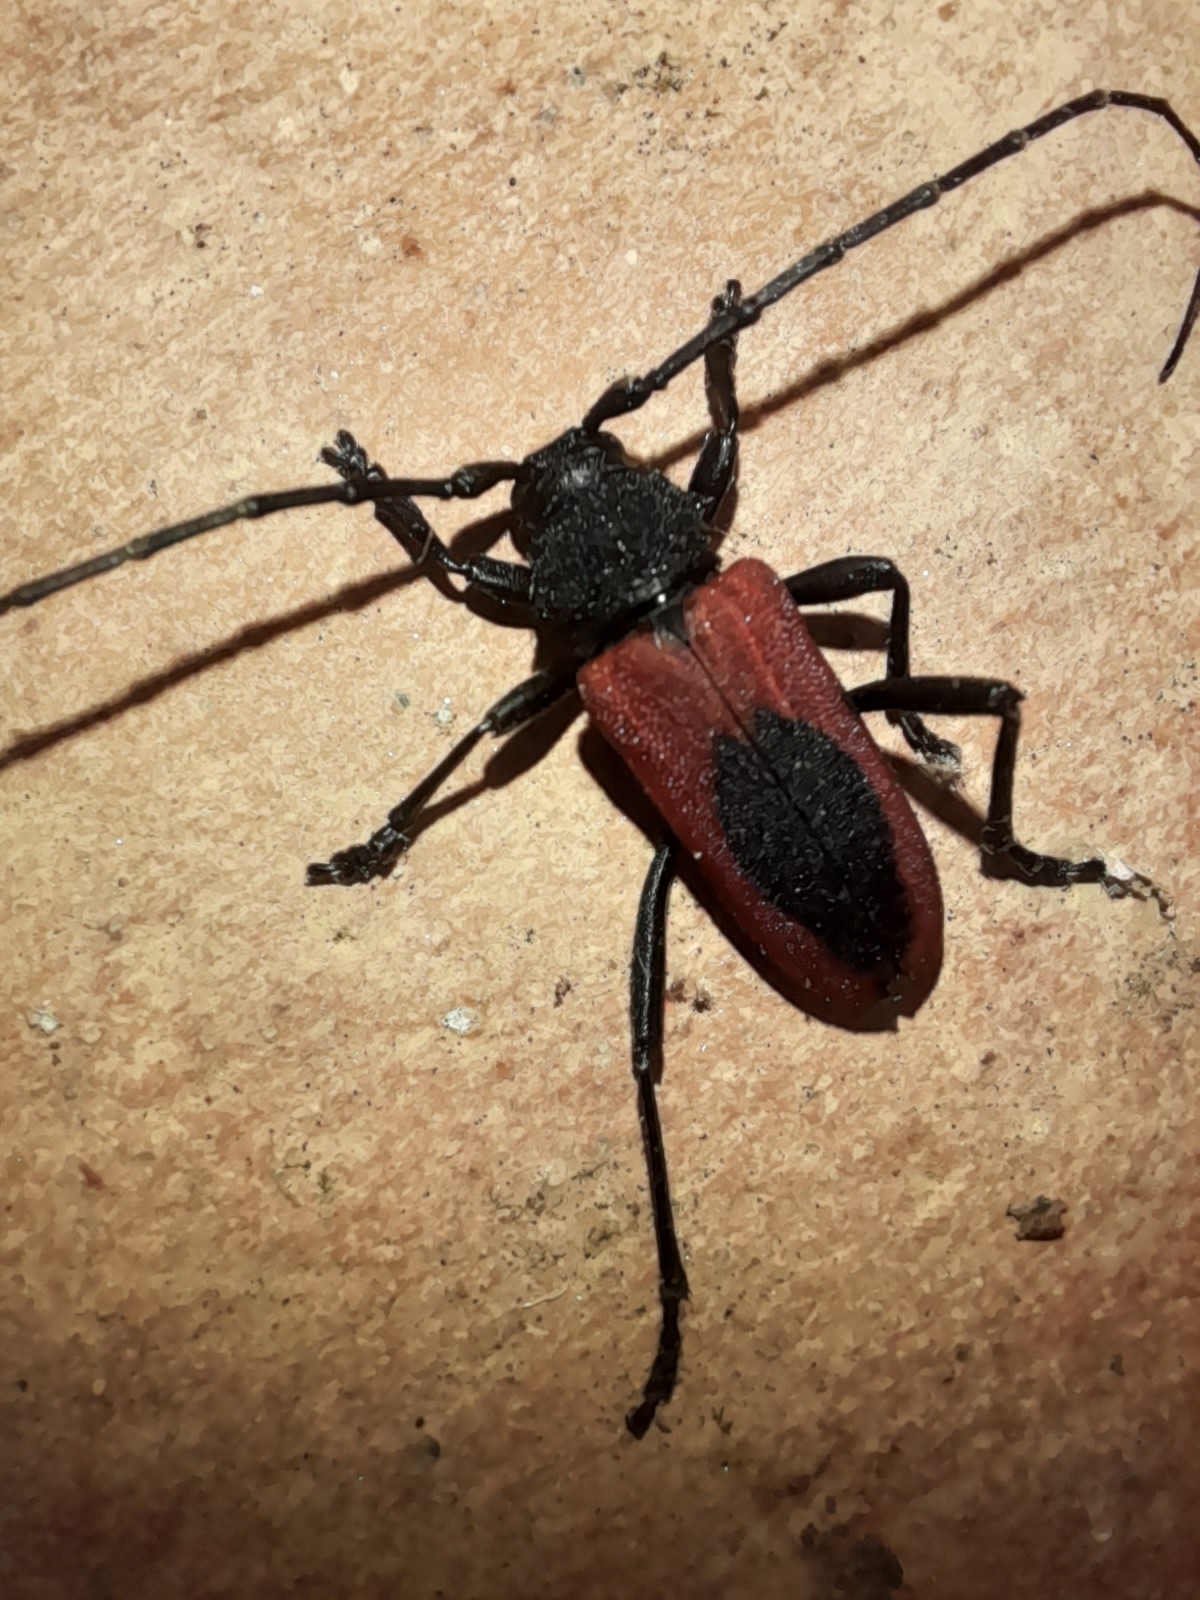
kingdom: Animalia
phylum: Arthropoda
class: Insecta
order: Coleoptera
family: Cerambycidae
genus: Purpuricenus
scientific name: Purpuricenus kaehleri
